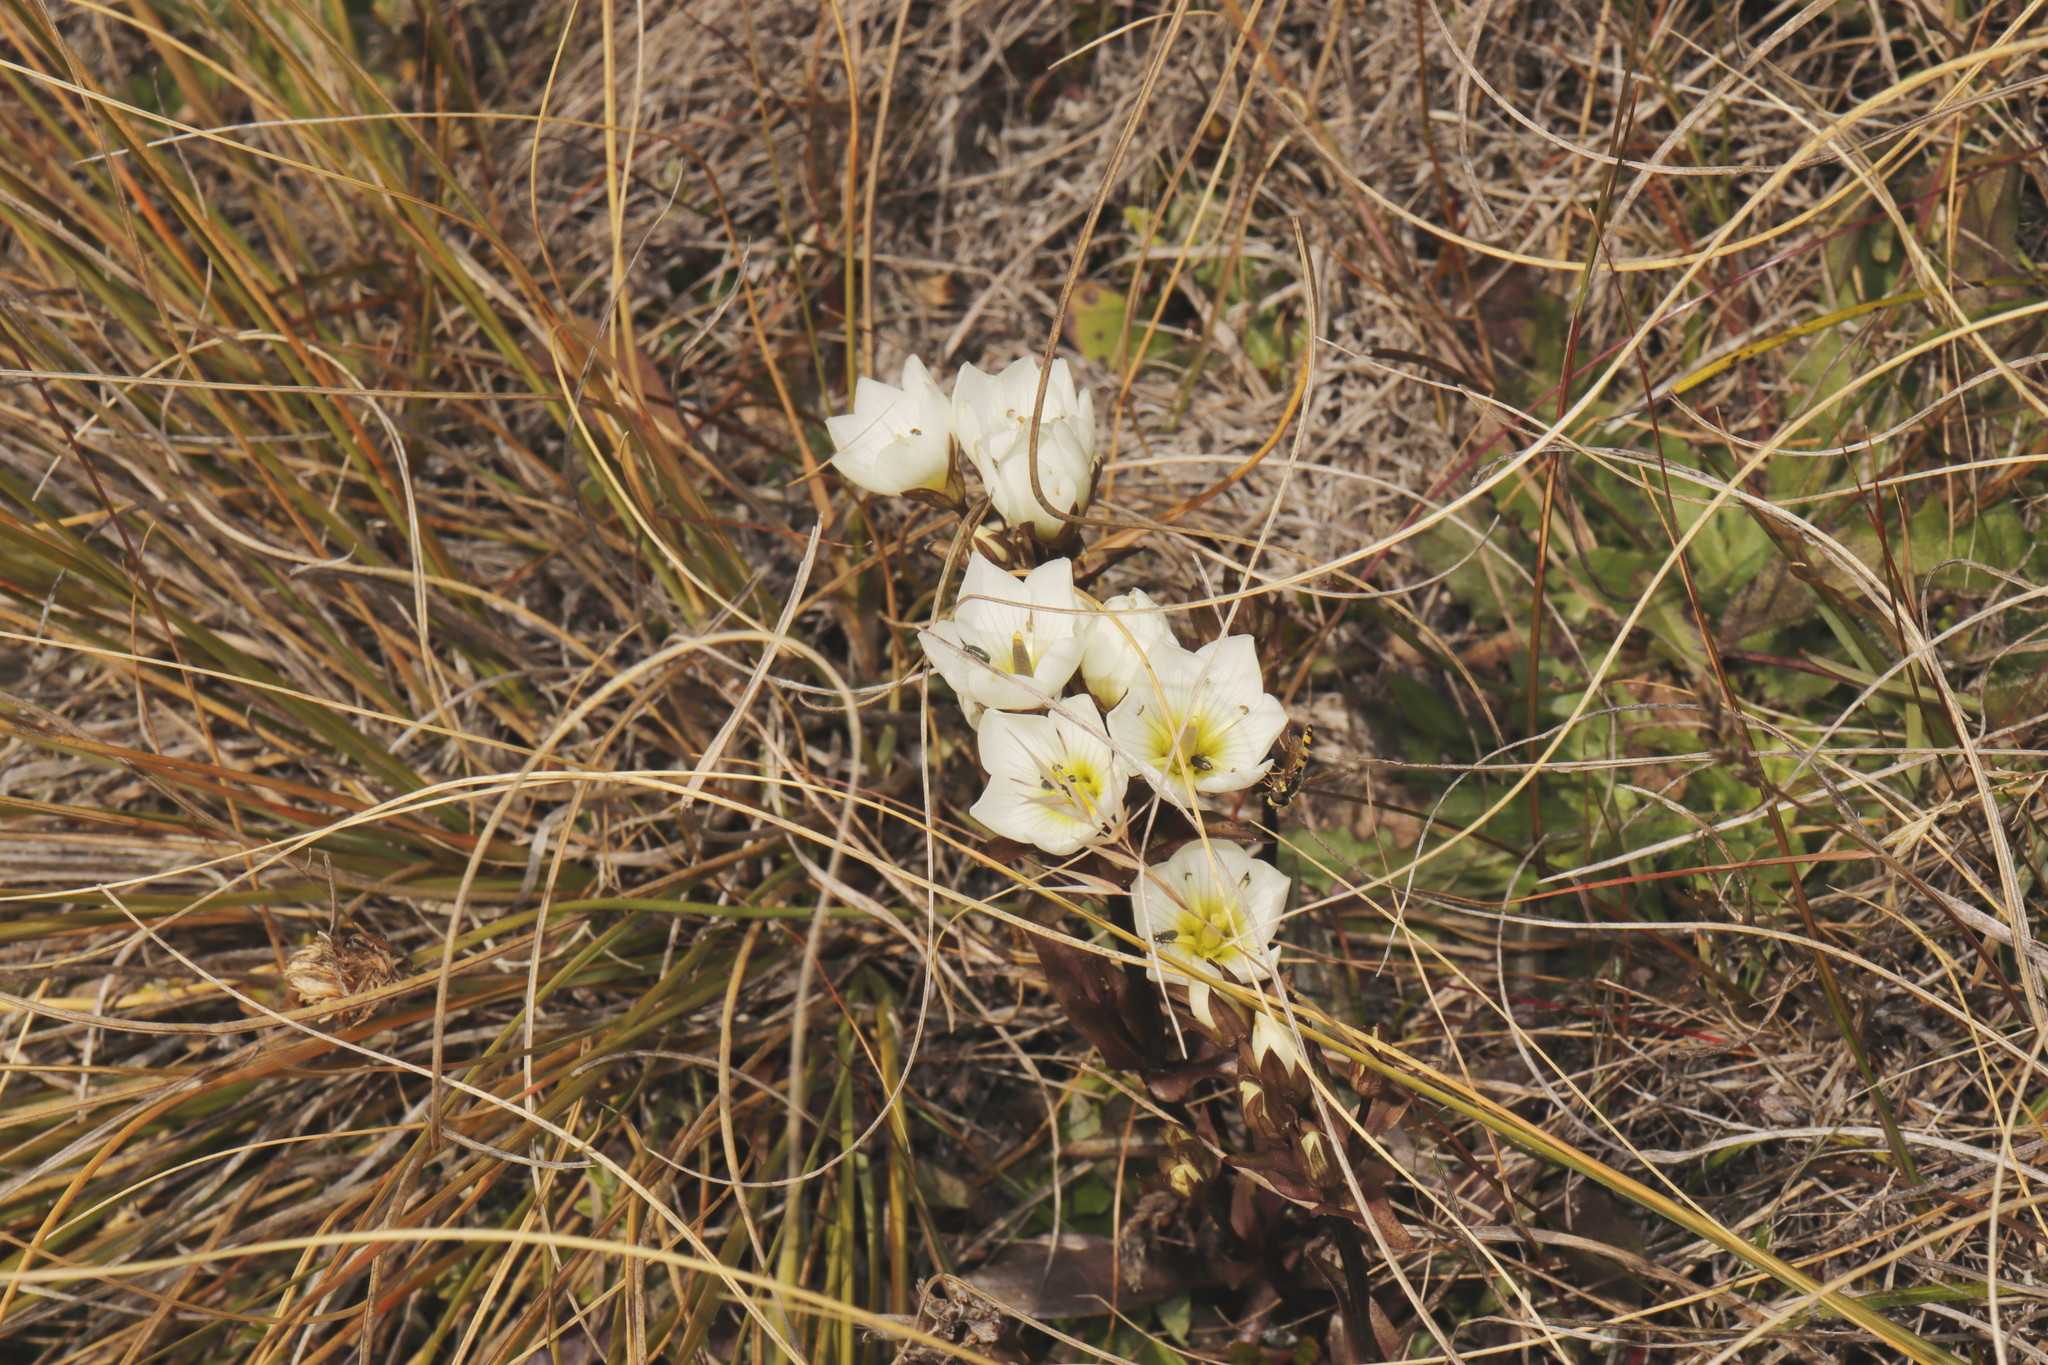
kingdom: Plantae
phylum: Tracheophyta
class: Magnoliopsida
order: Gentianales
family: Gentianaceae
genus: Gentianella
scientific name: Gentianella bellidifolia
